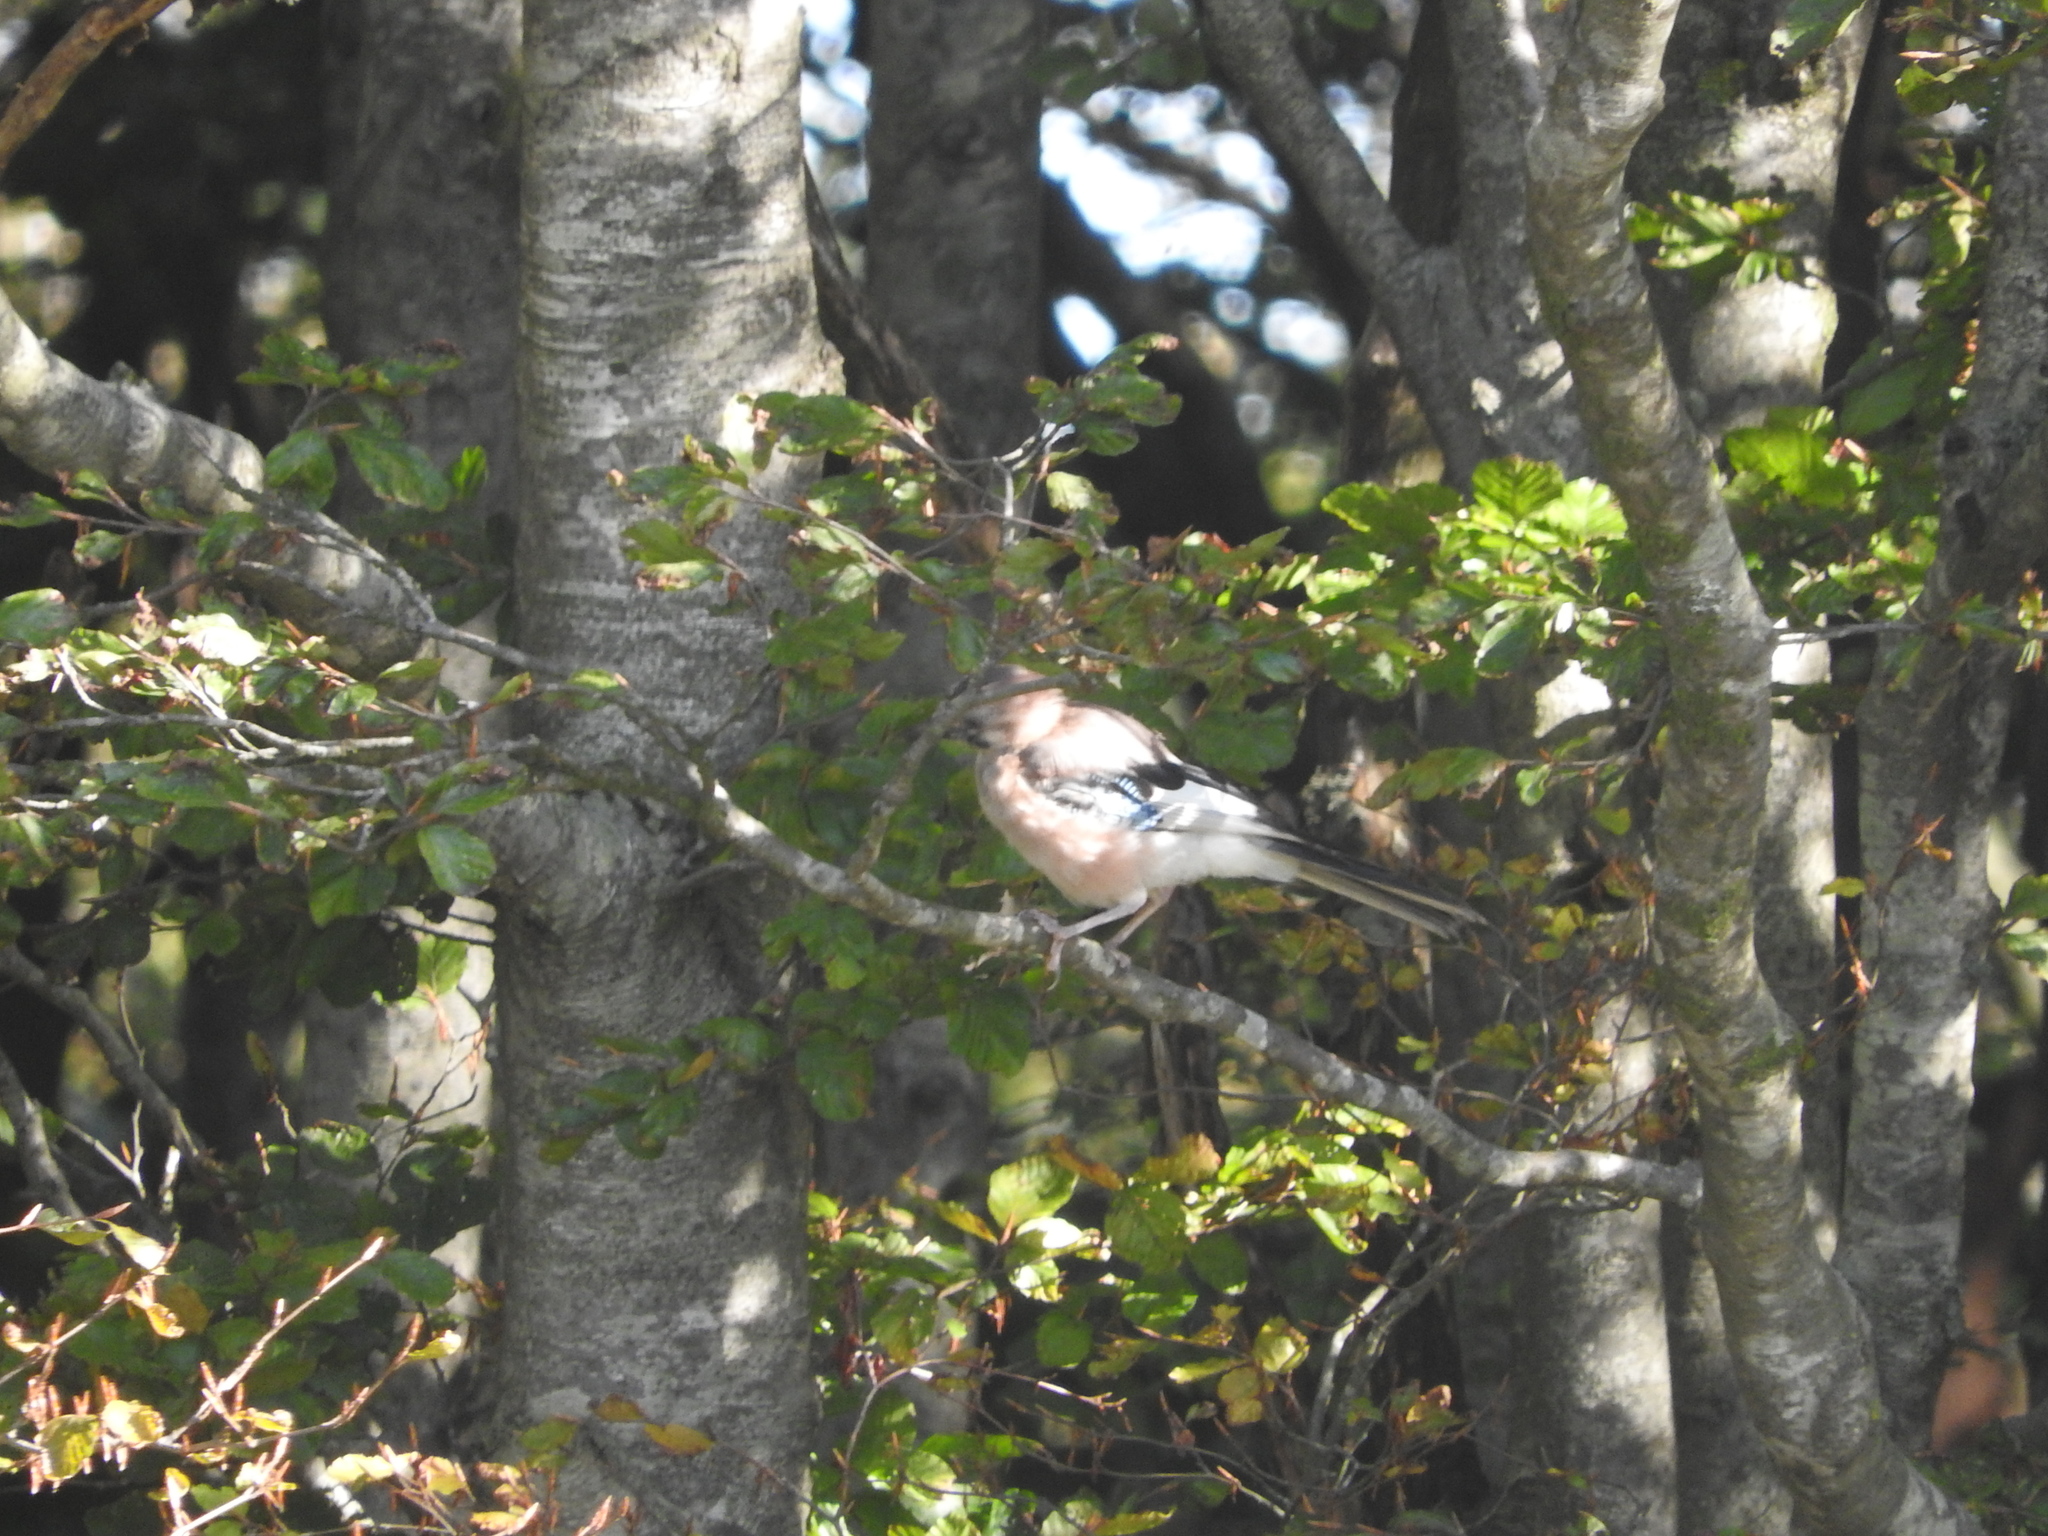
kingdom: Animalia
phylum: Chordata
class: Aves
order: Passeriformes
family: Corvidae
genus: Garrulus
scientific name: Garrulus glandarius
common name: Eurasian jay
